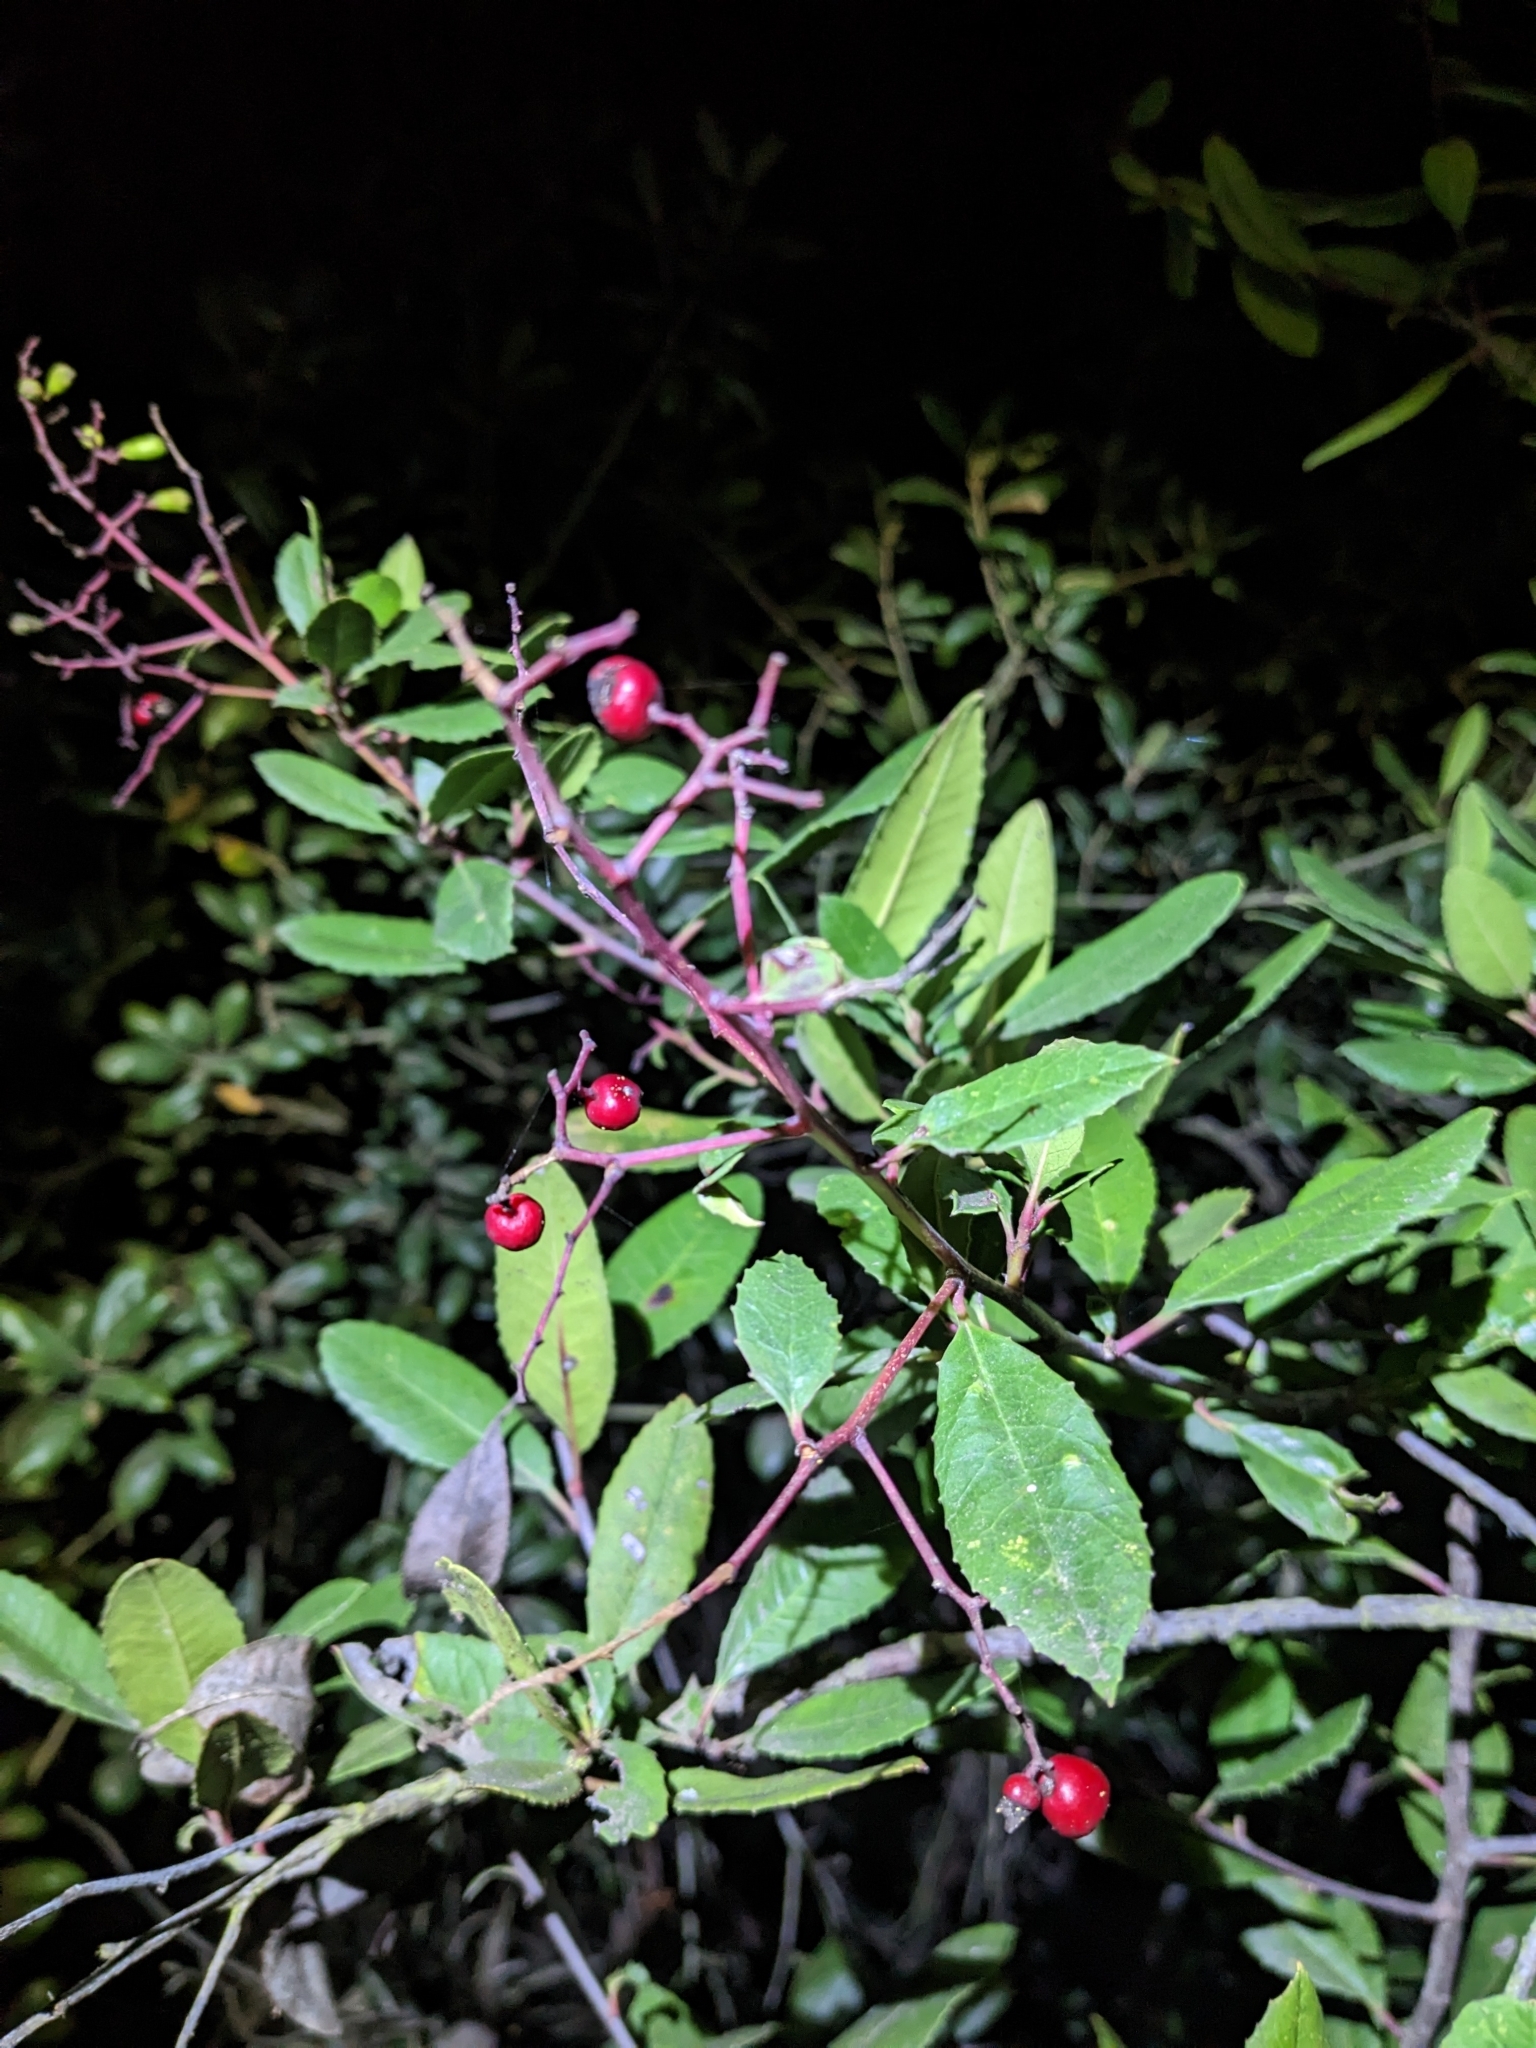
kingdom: Plantae
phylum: Tracheophyta
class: Magnoliopsida
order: Rosales
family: Rosaceae
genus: Heteromeles
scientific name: Heteromeles arbutifolia
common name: California-holly
